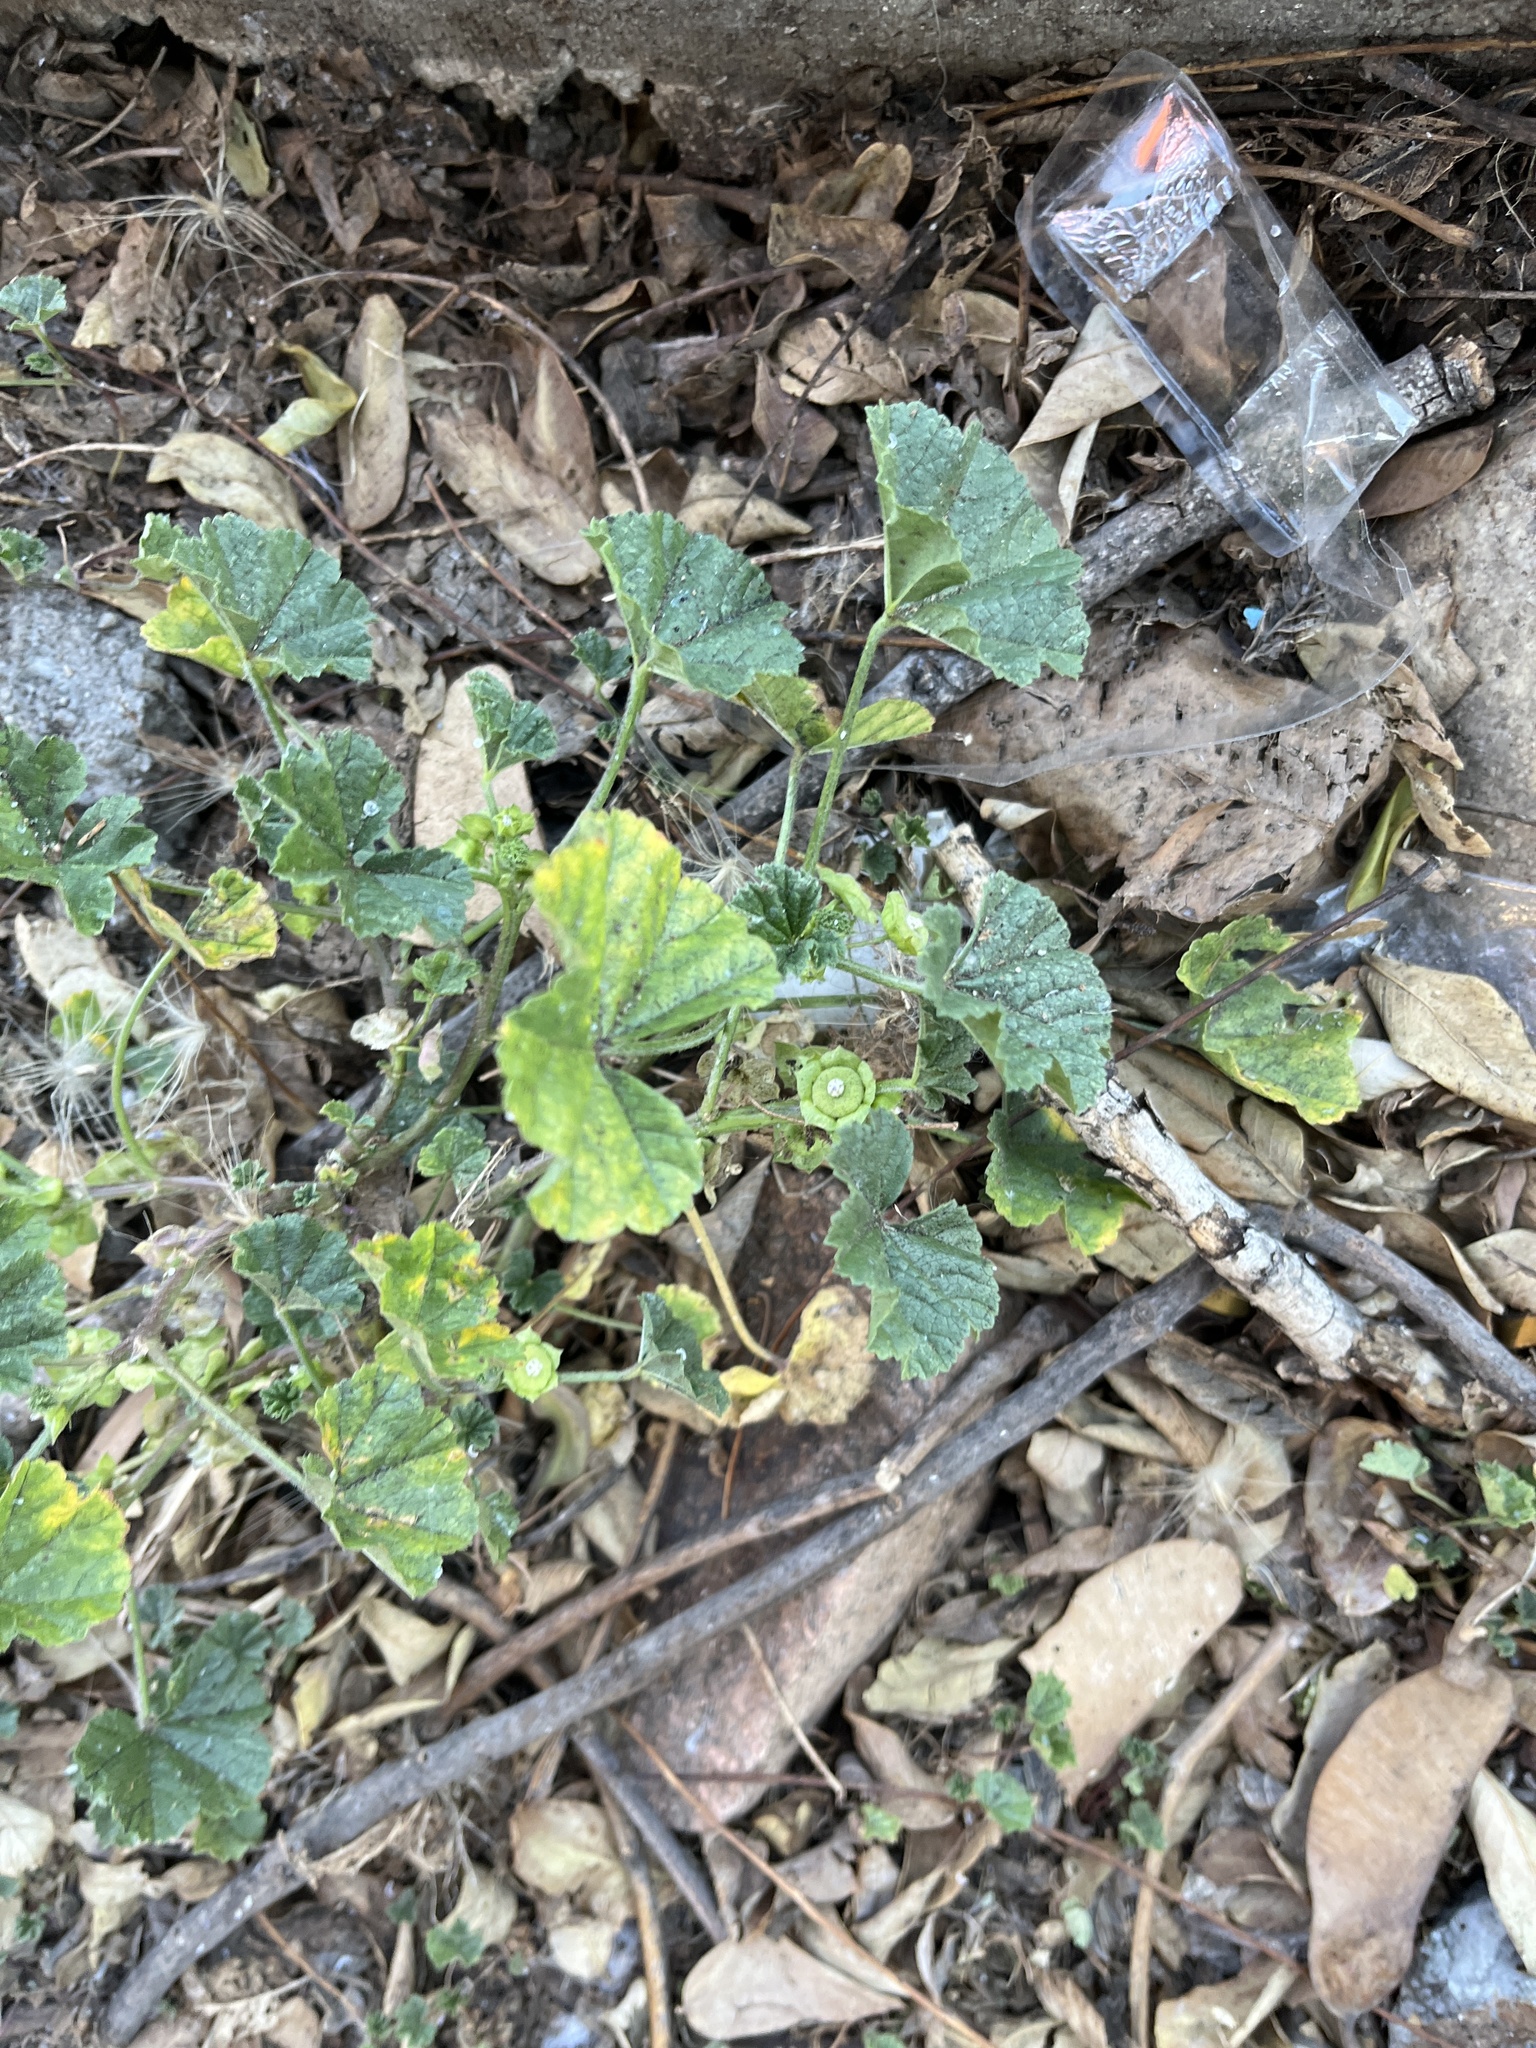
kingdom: Plantae
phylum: Tracheophyta
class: Magnoliopsida
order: Malvales
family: Malvaceae
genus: Malva
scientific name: Malva parviflora
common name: Least mallow
